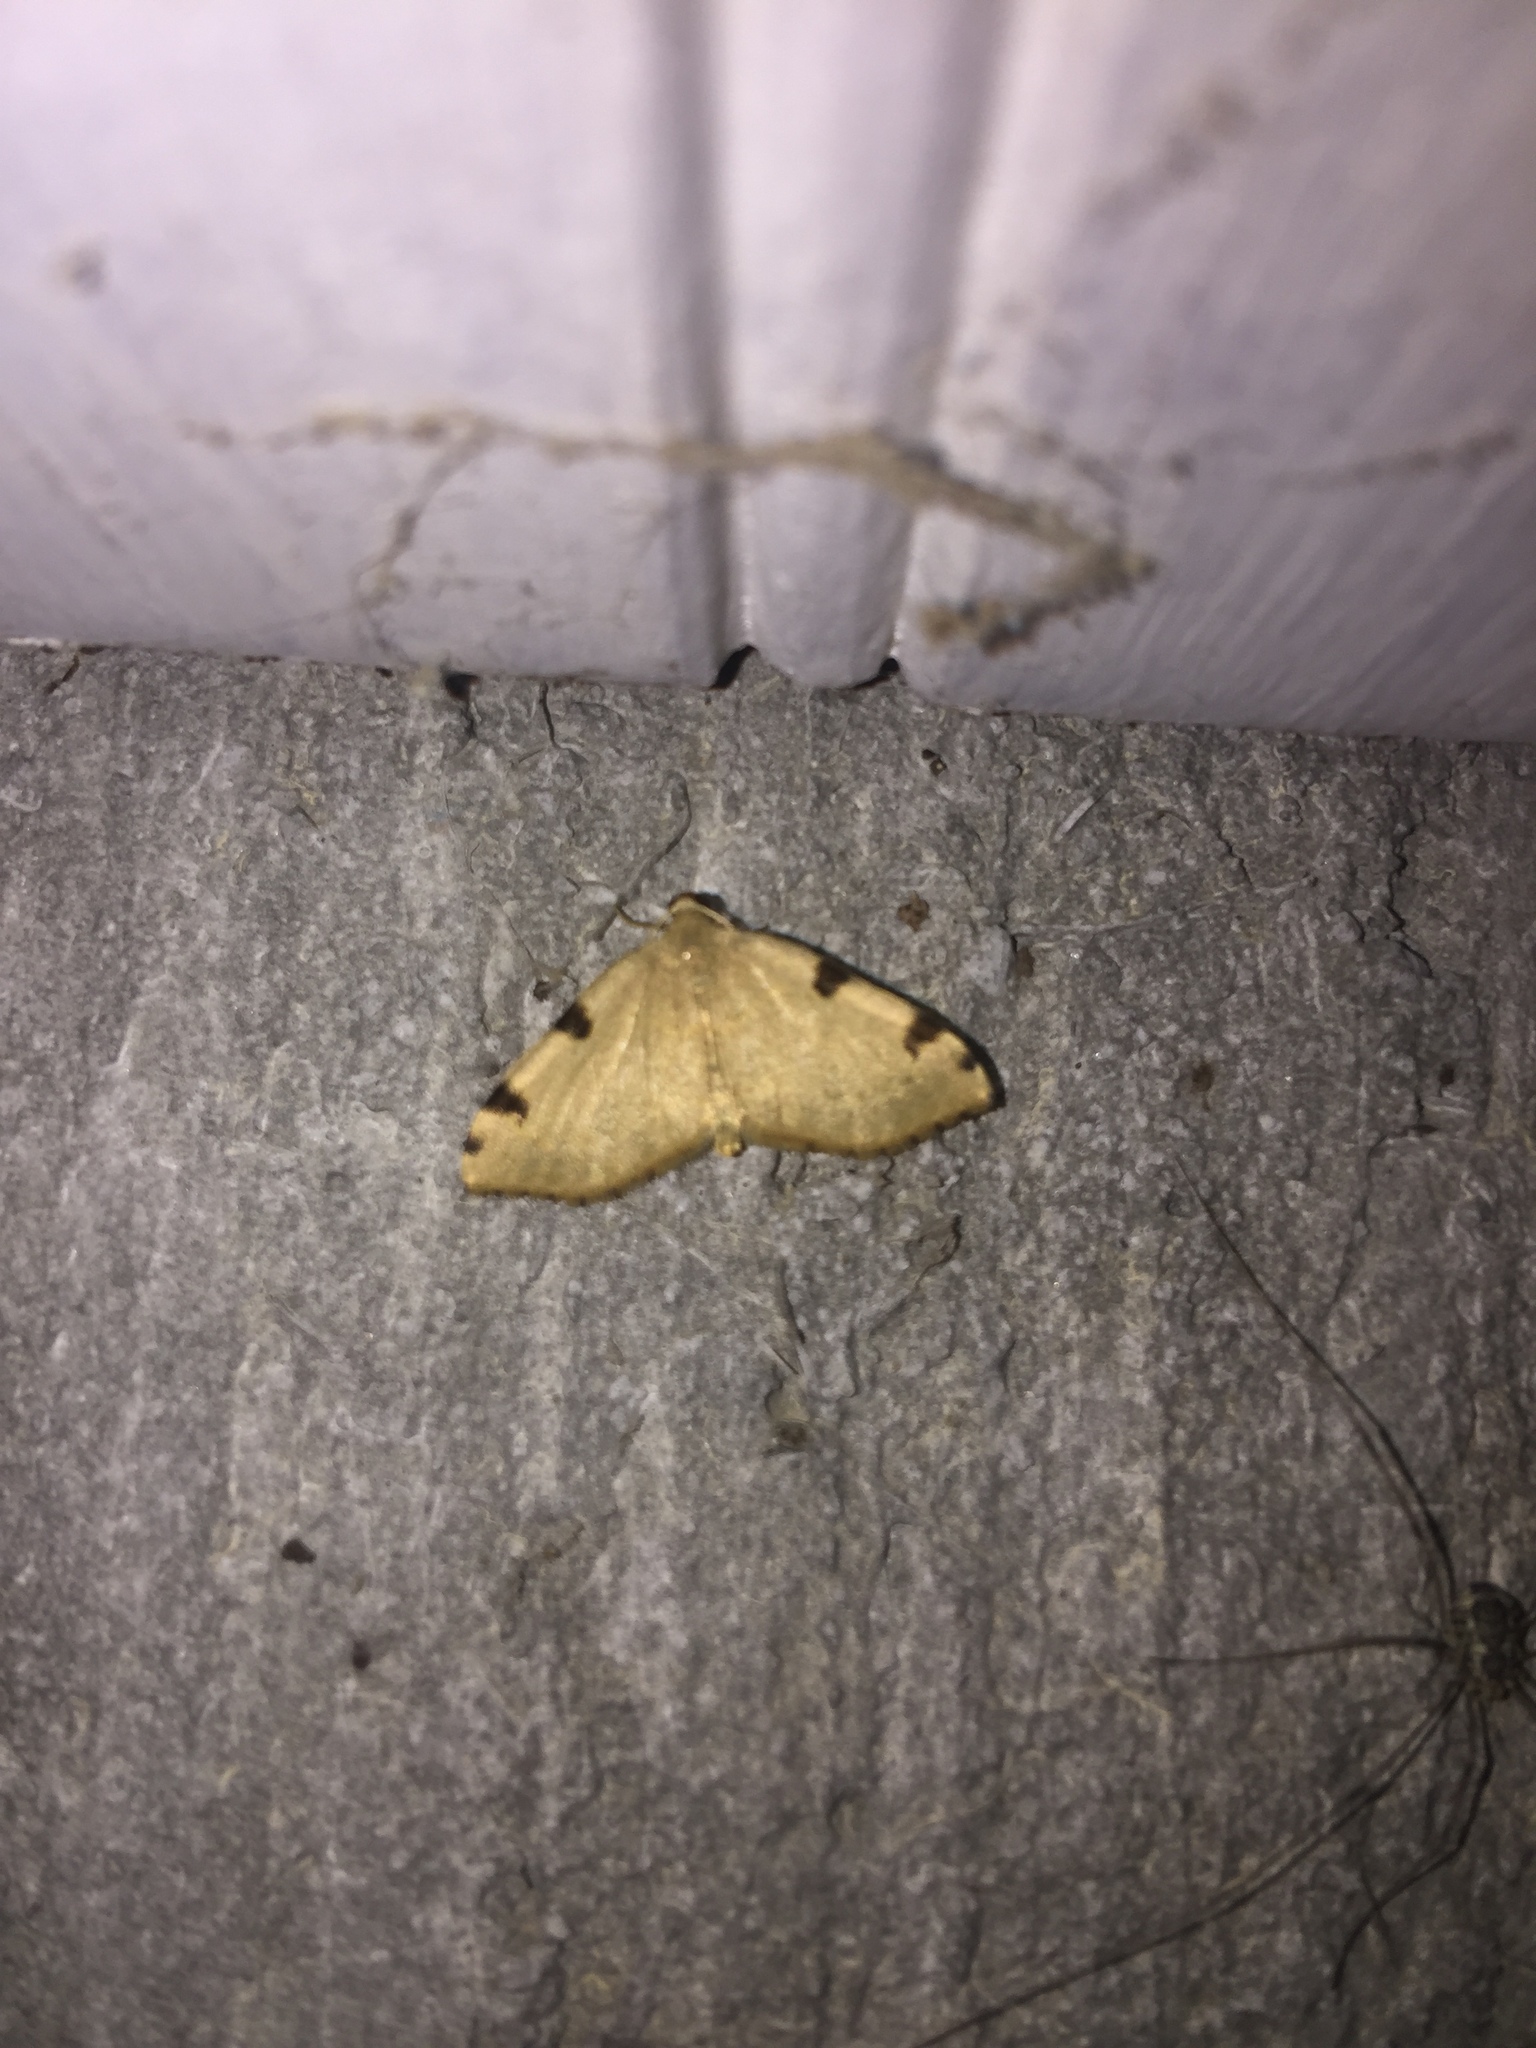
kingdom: Animalia
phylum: Arthropoda
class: Insecta
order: Lepidoptera
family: Geometridae
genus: Heterophleps
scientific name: Heterophleps triguttaria
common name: Three-spotted fillip
